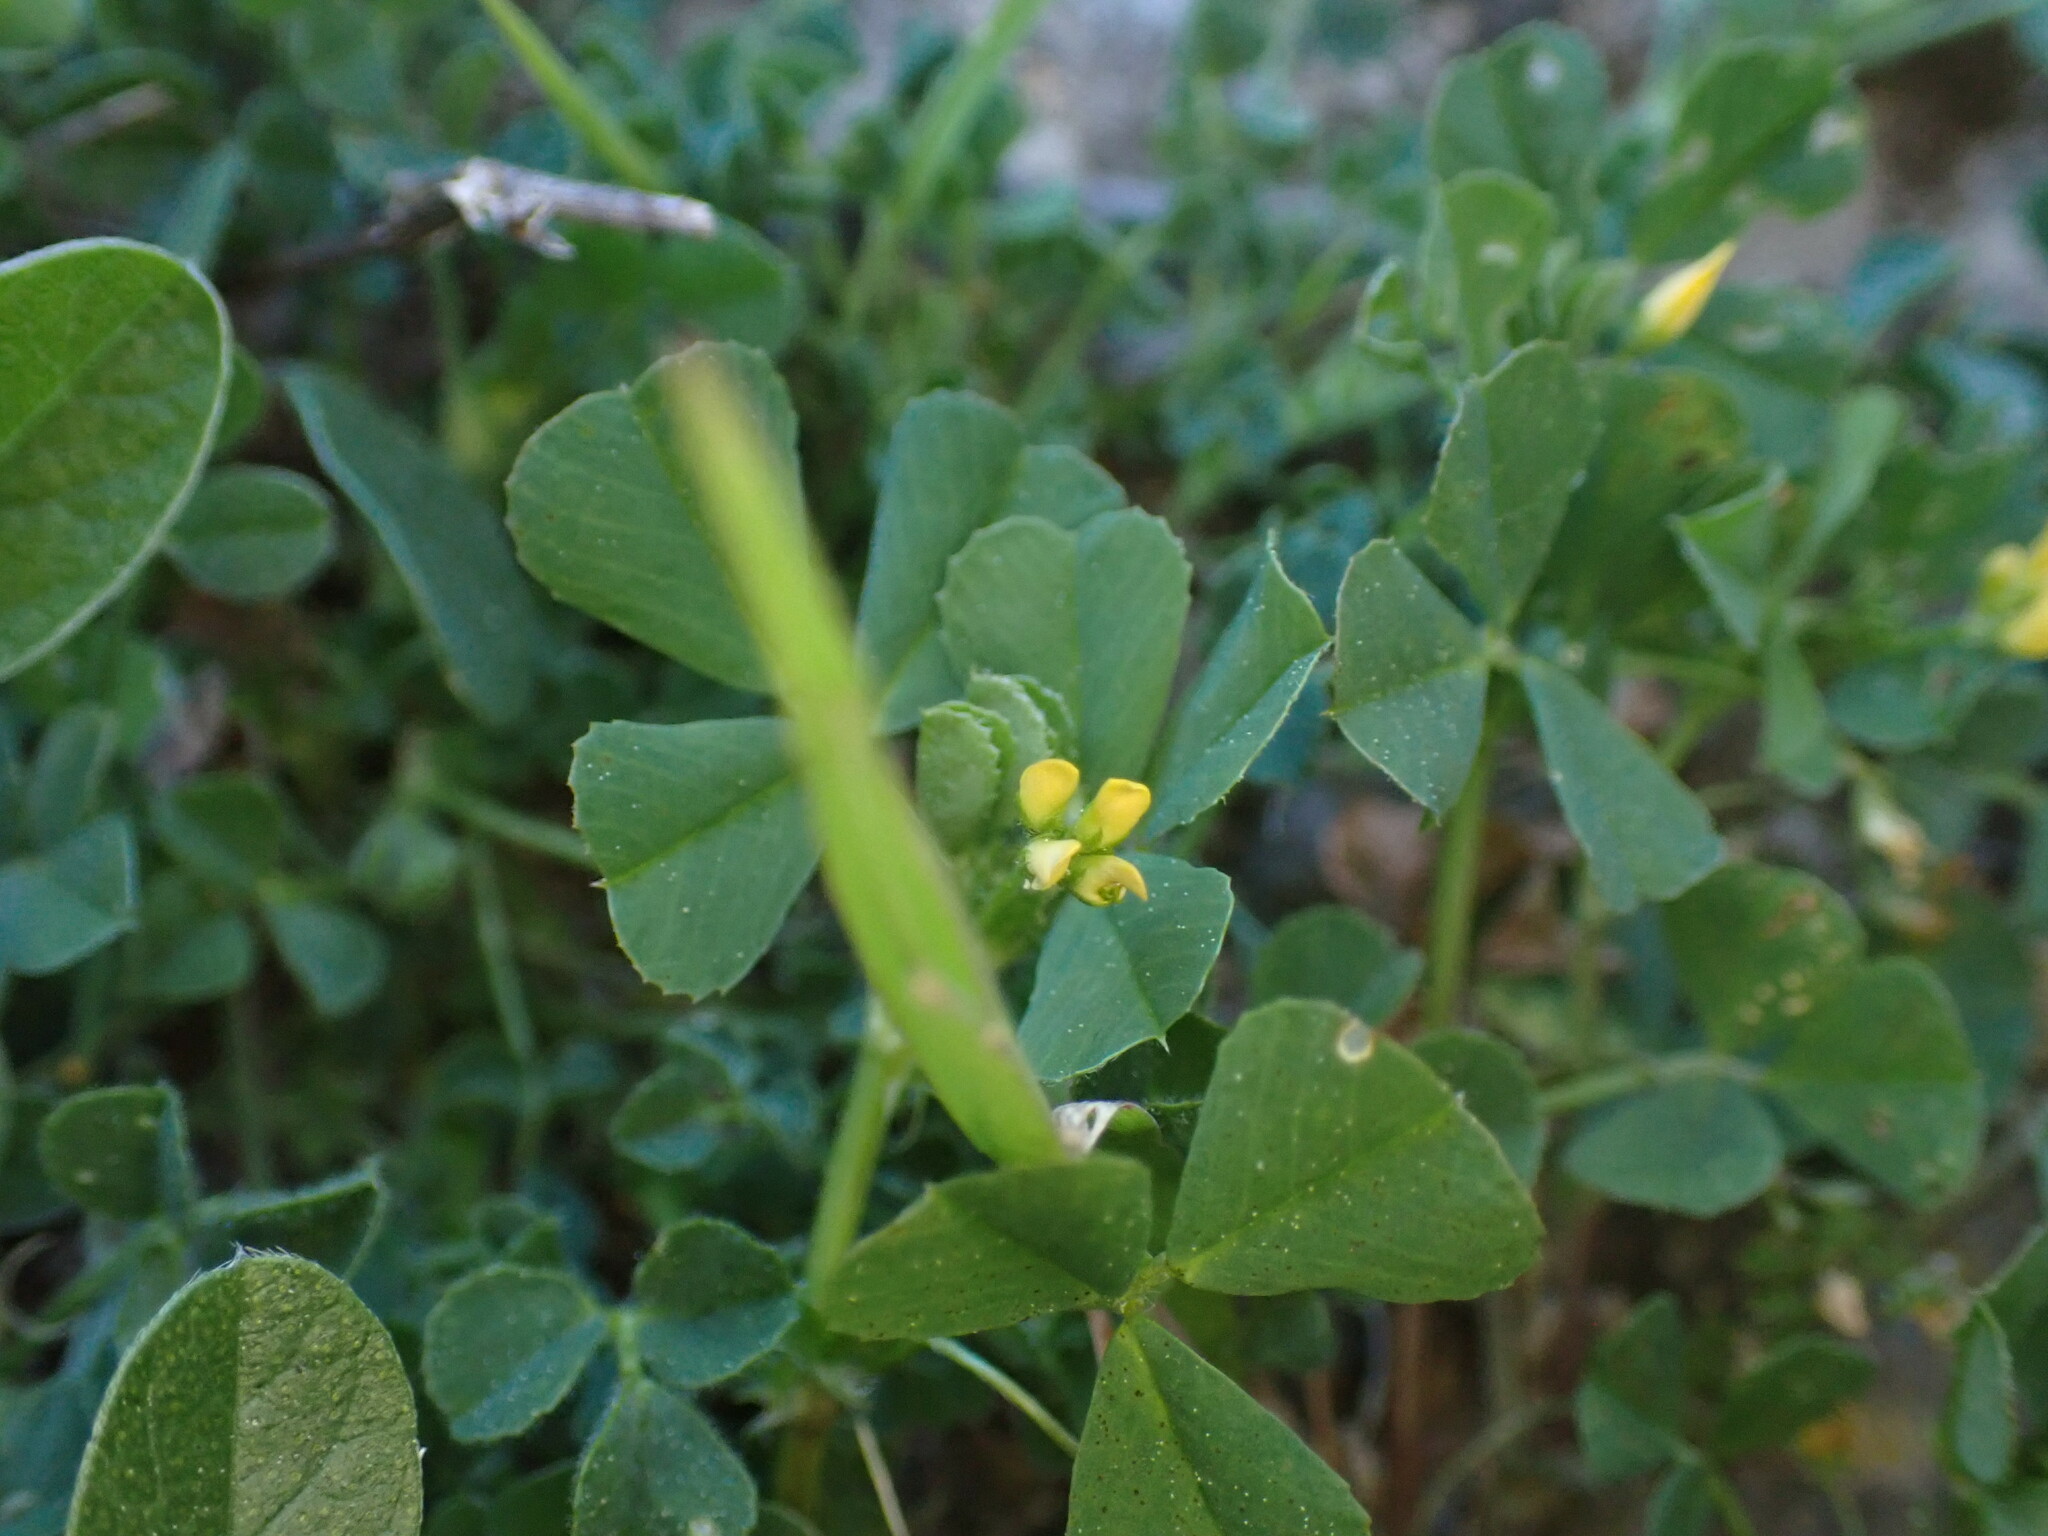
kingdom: Plantae
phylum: Tracheophyta
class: Magnoliopsida
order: Fabales
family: Fabaceae
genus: Medicago
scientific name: Medicago polymorpha
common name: Burclover
